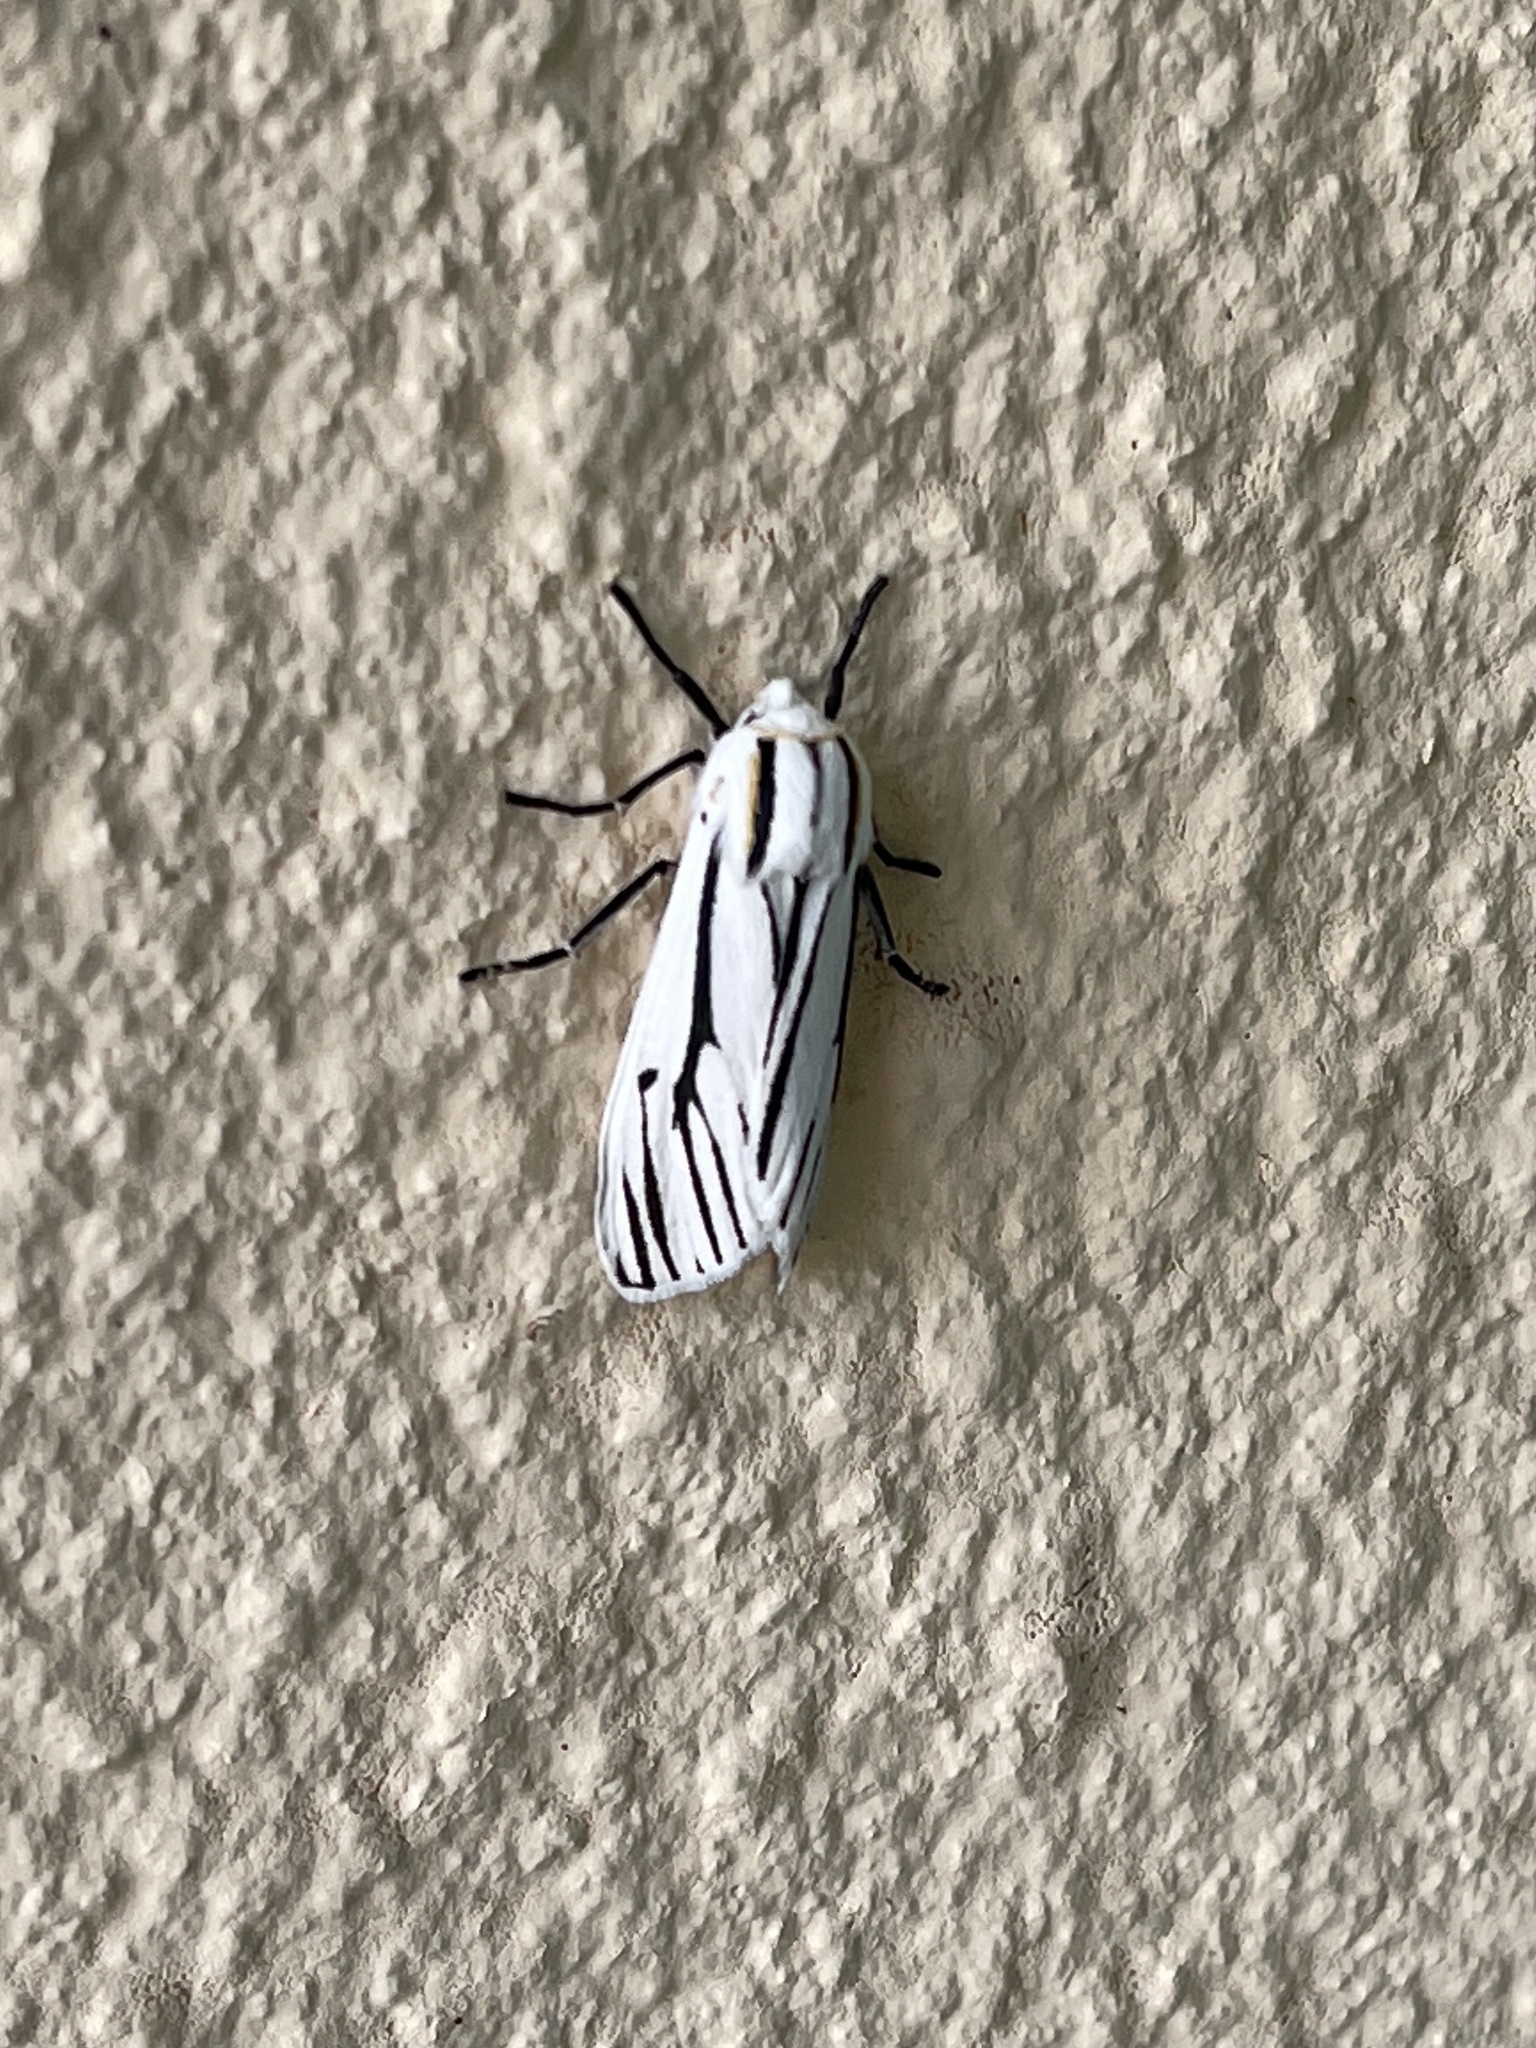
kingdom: Animalia
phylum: Arthropoda
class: Insecta
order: Lepidoptera
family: Erebidae
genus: Ectypia
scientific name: Ectypia clio
